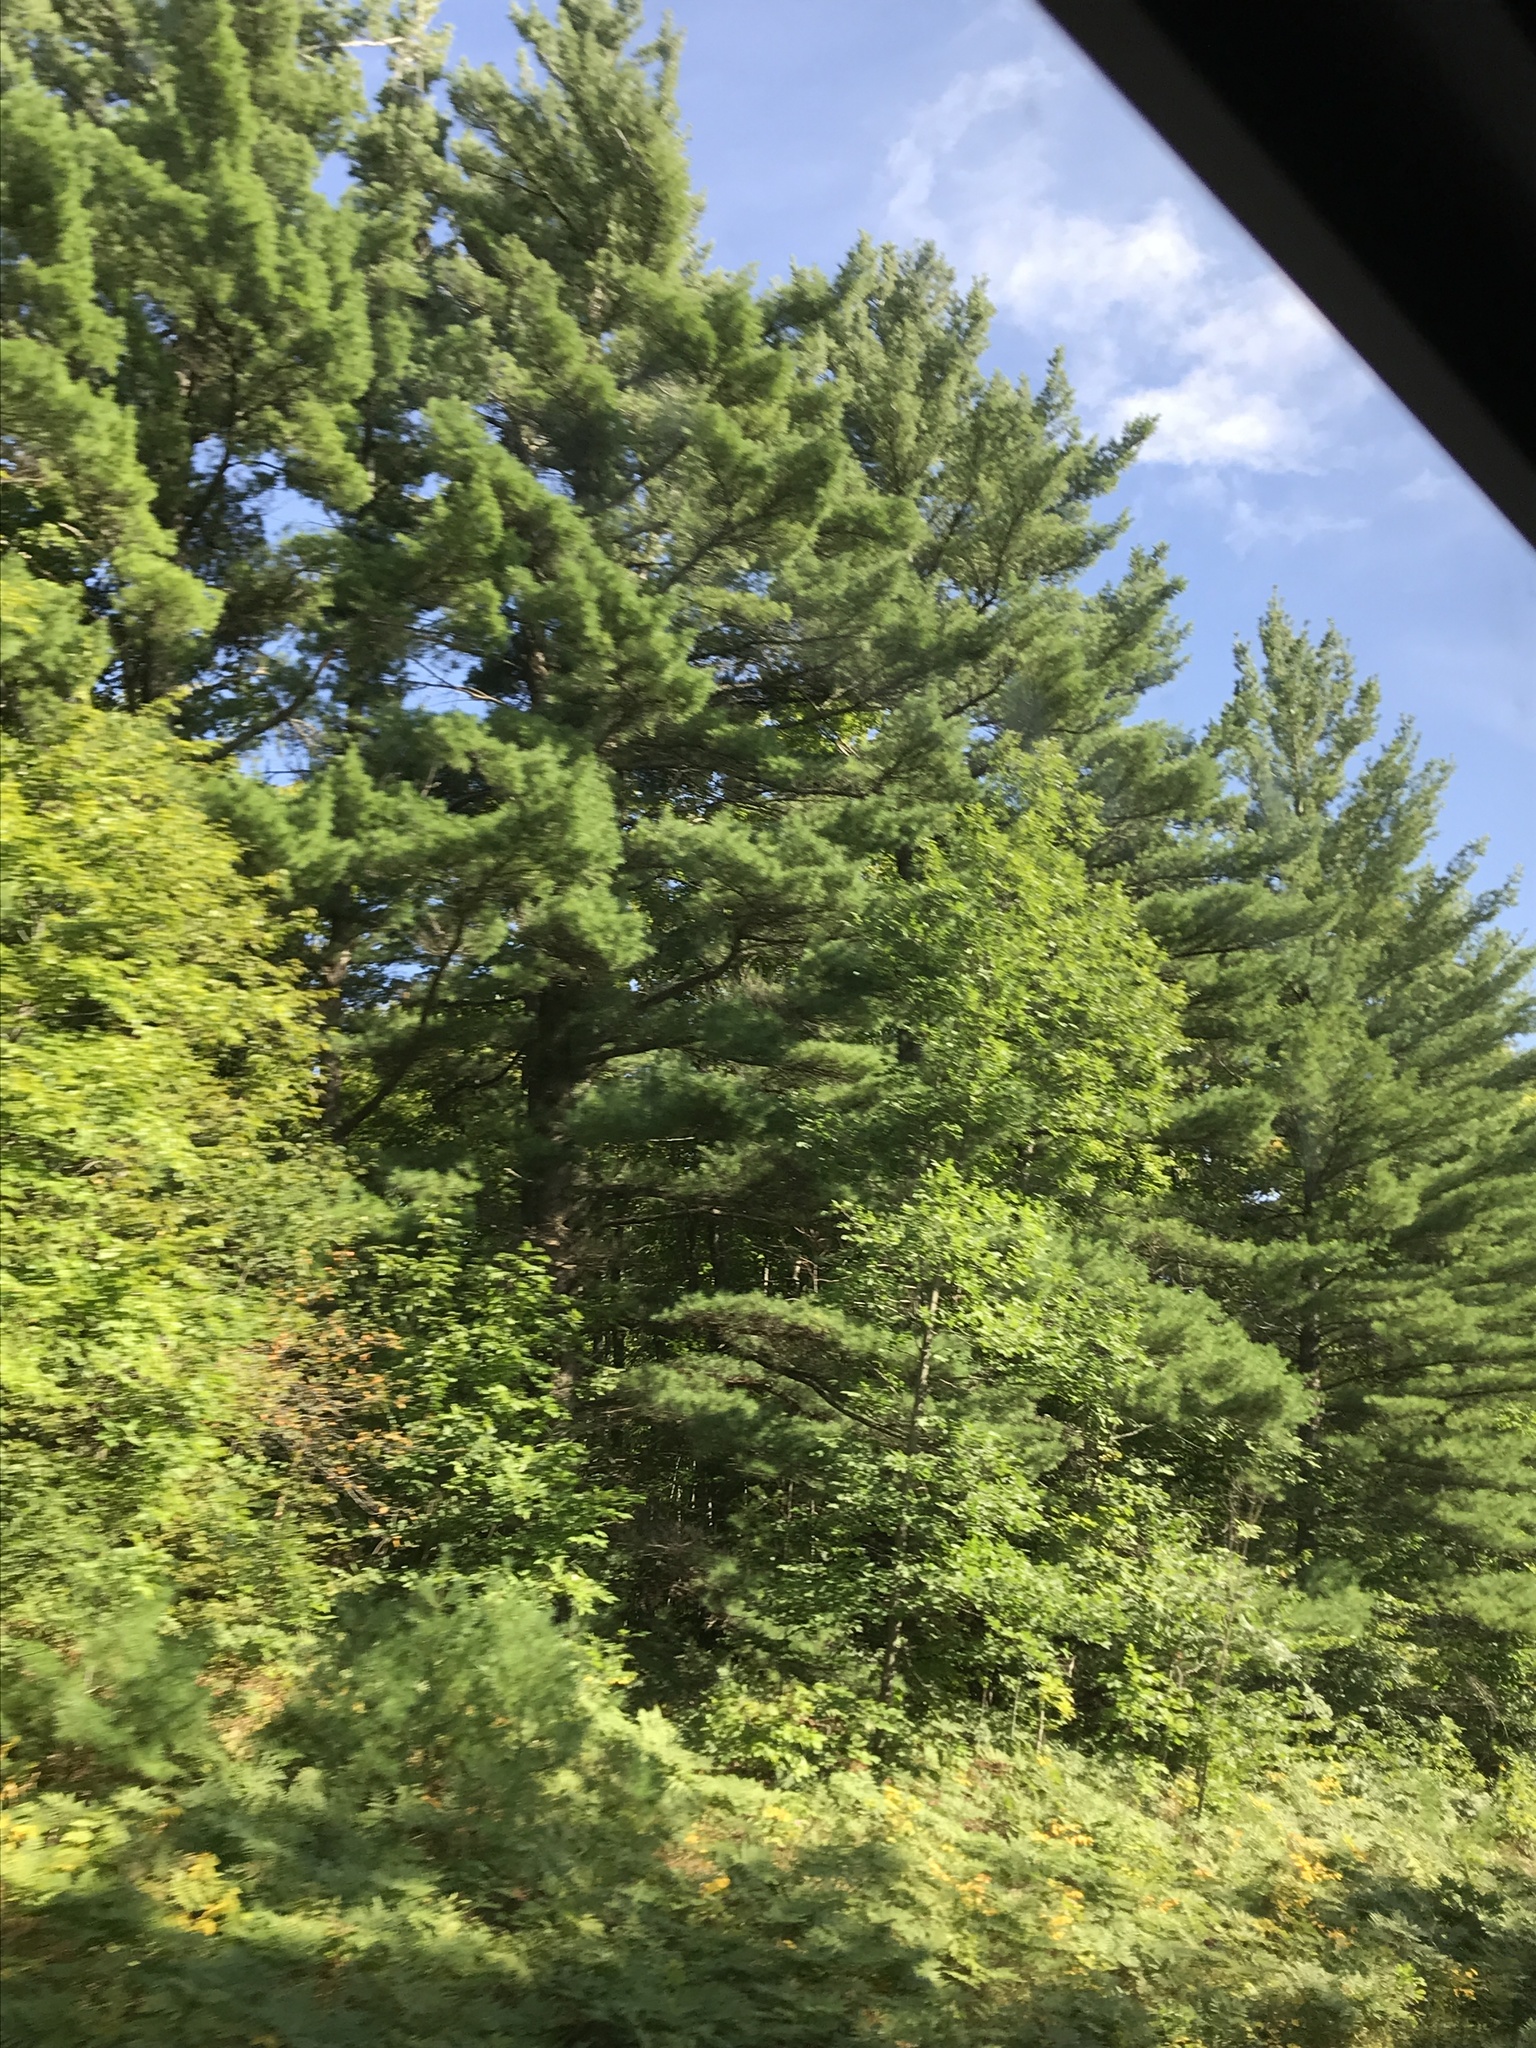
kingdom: Plantae
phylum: Tracheophyta
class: Pinopsida
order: Pinales
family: Pinaceae
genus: Pinus
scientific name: Pinus strobus
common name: Weymouth pine
